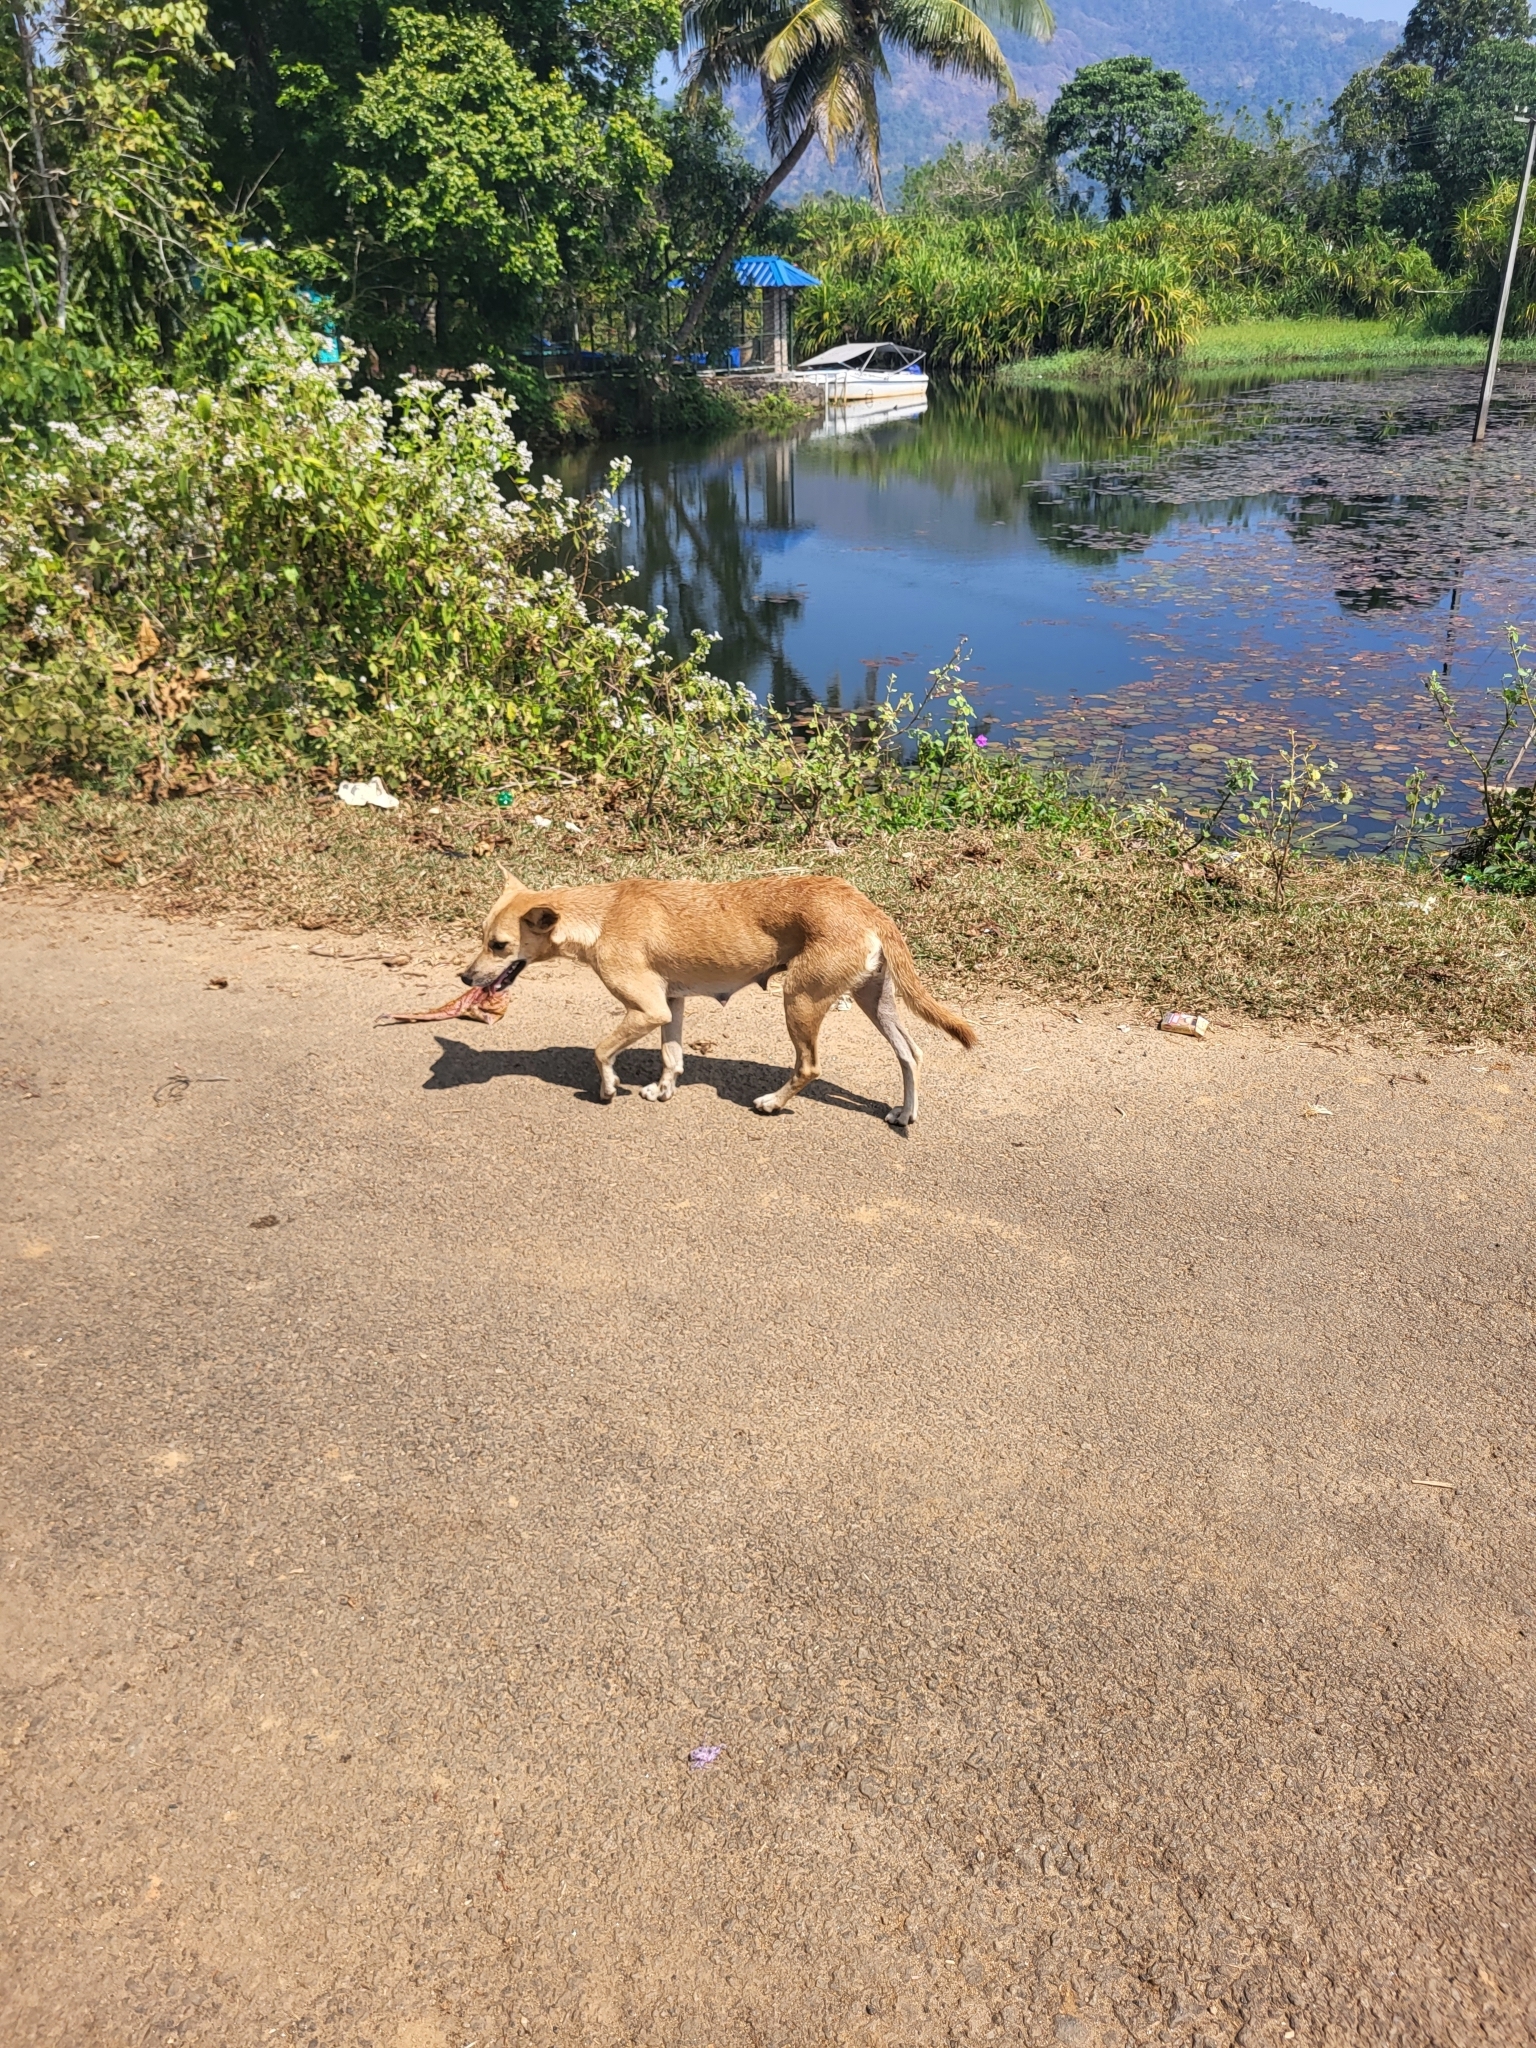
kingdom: Animalia
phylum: Chordata
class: Mammalia
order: Carnivora
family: Canidae
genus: Canis
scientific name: Canis lupus
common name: Gray wolf
